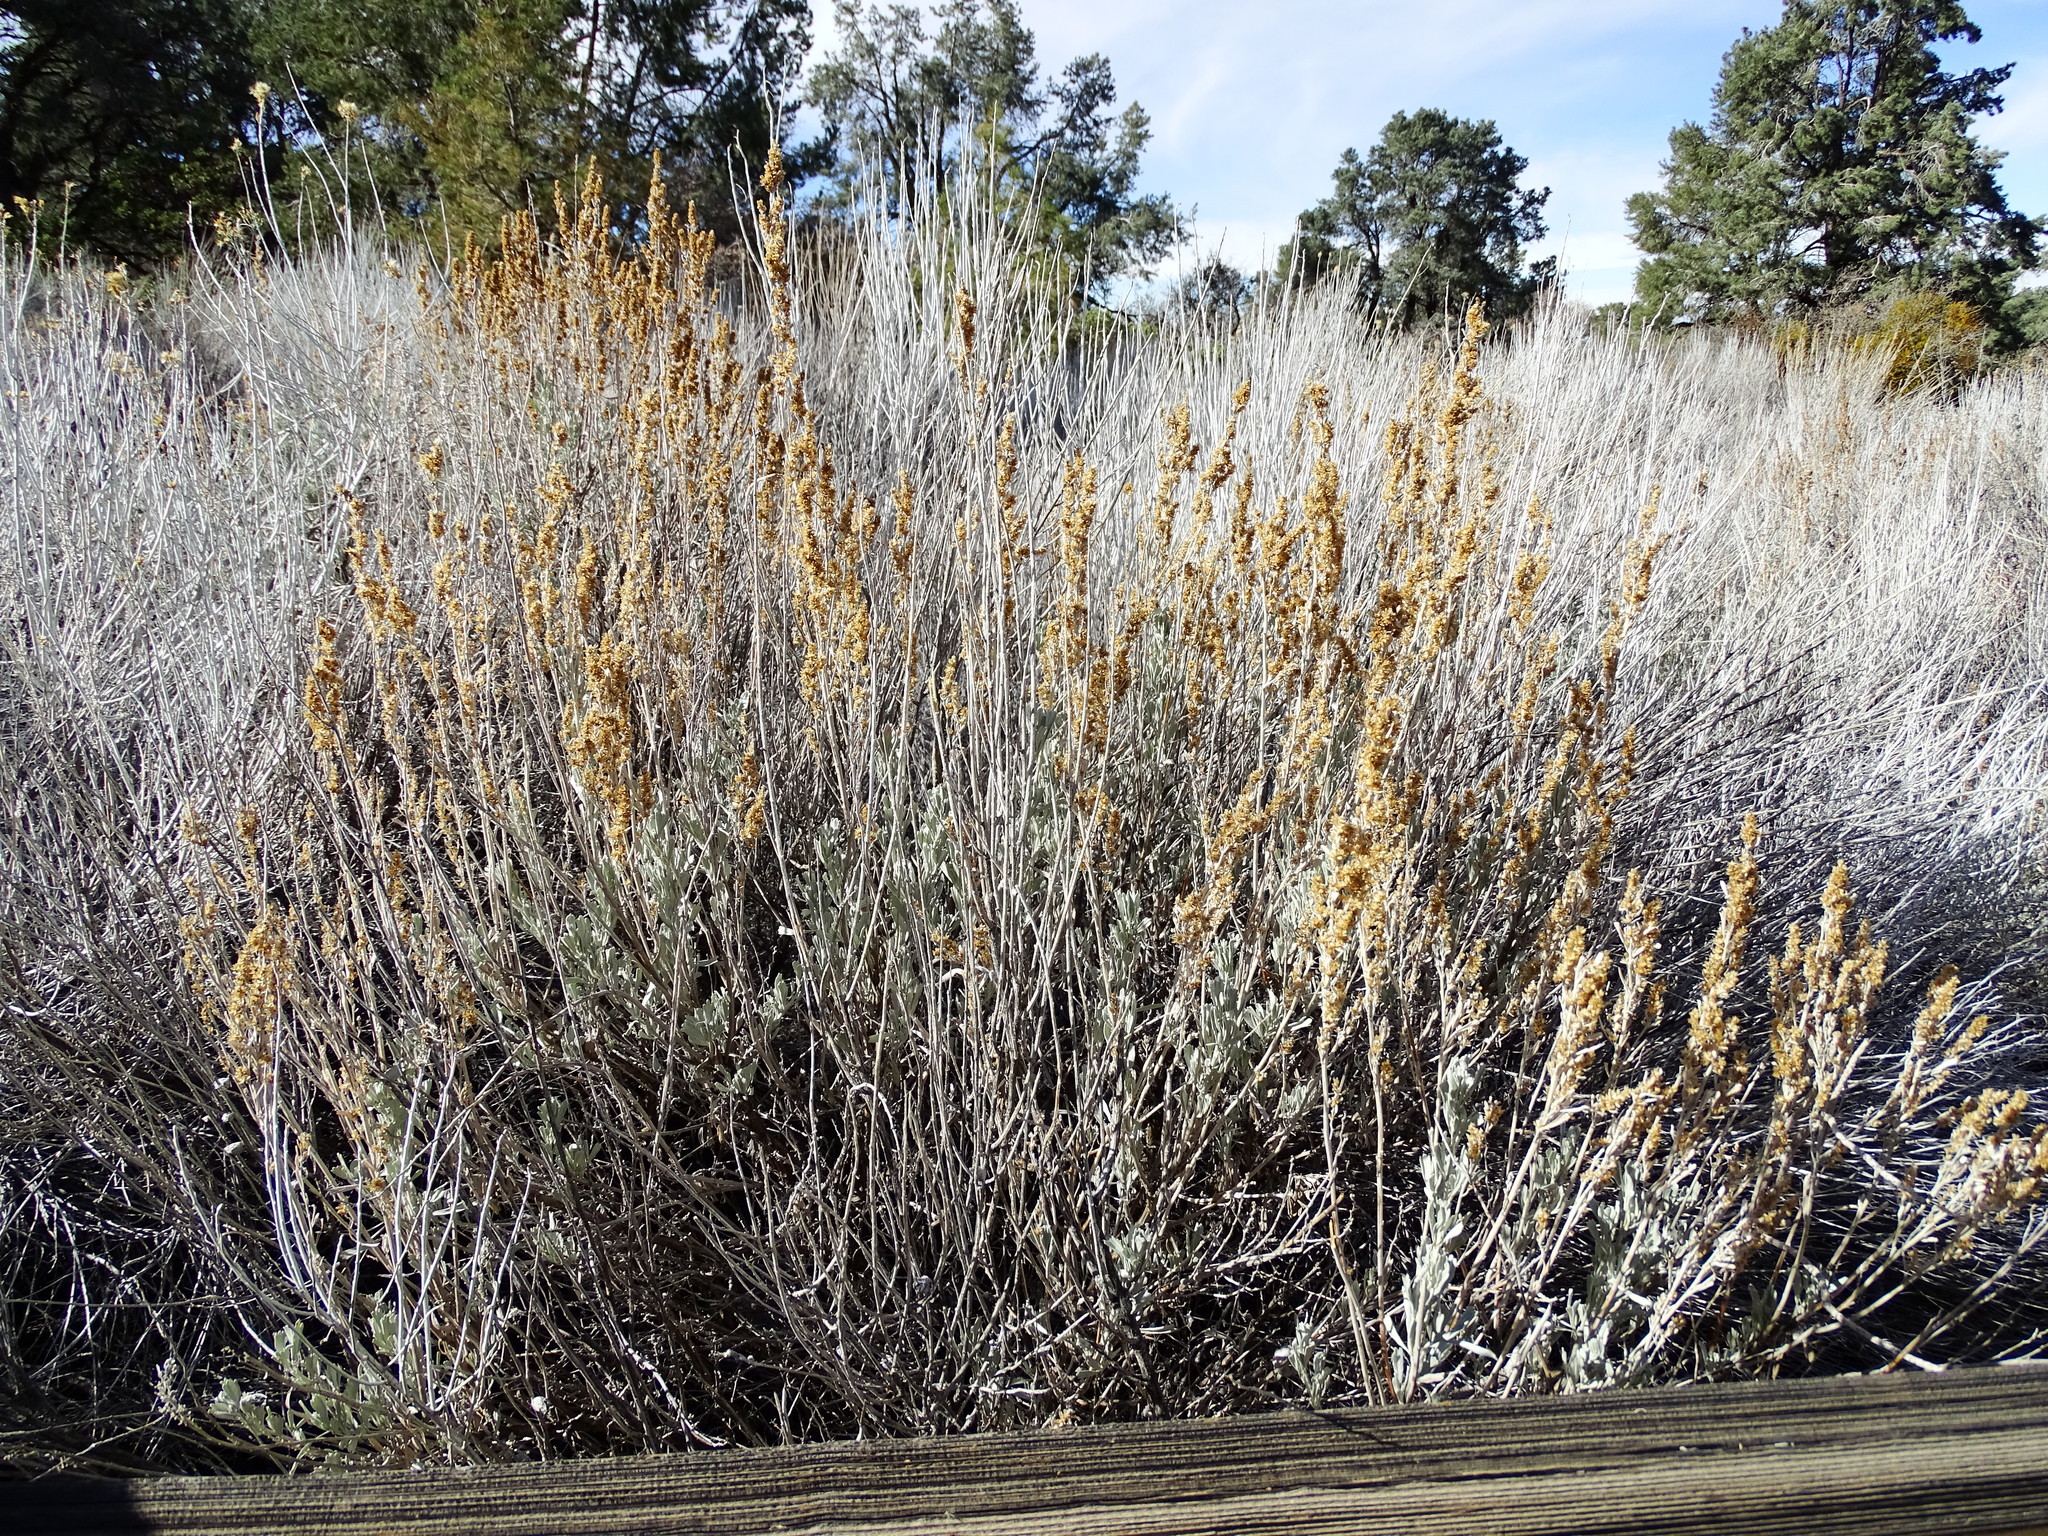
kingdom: Plantae
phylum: Tracheophyta
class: Magnoliopsida
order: Asterales
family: Asteraceae
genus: Artemisia
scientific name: Artemisia tridentata
